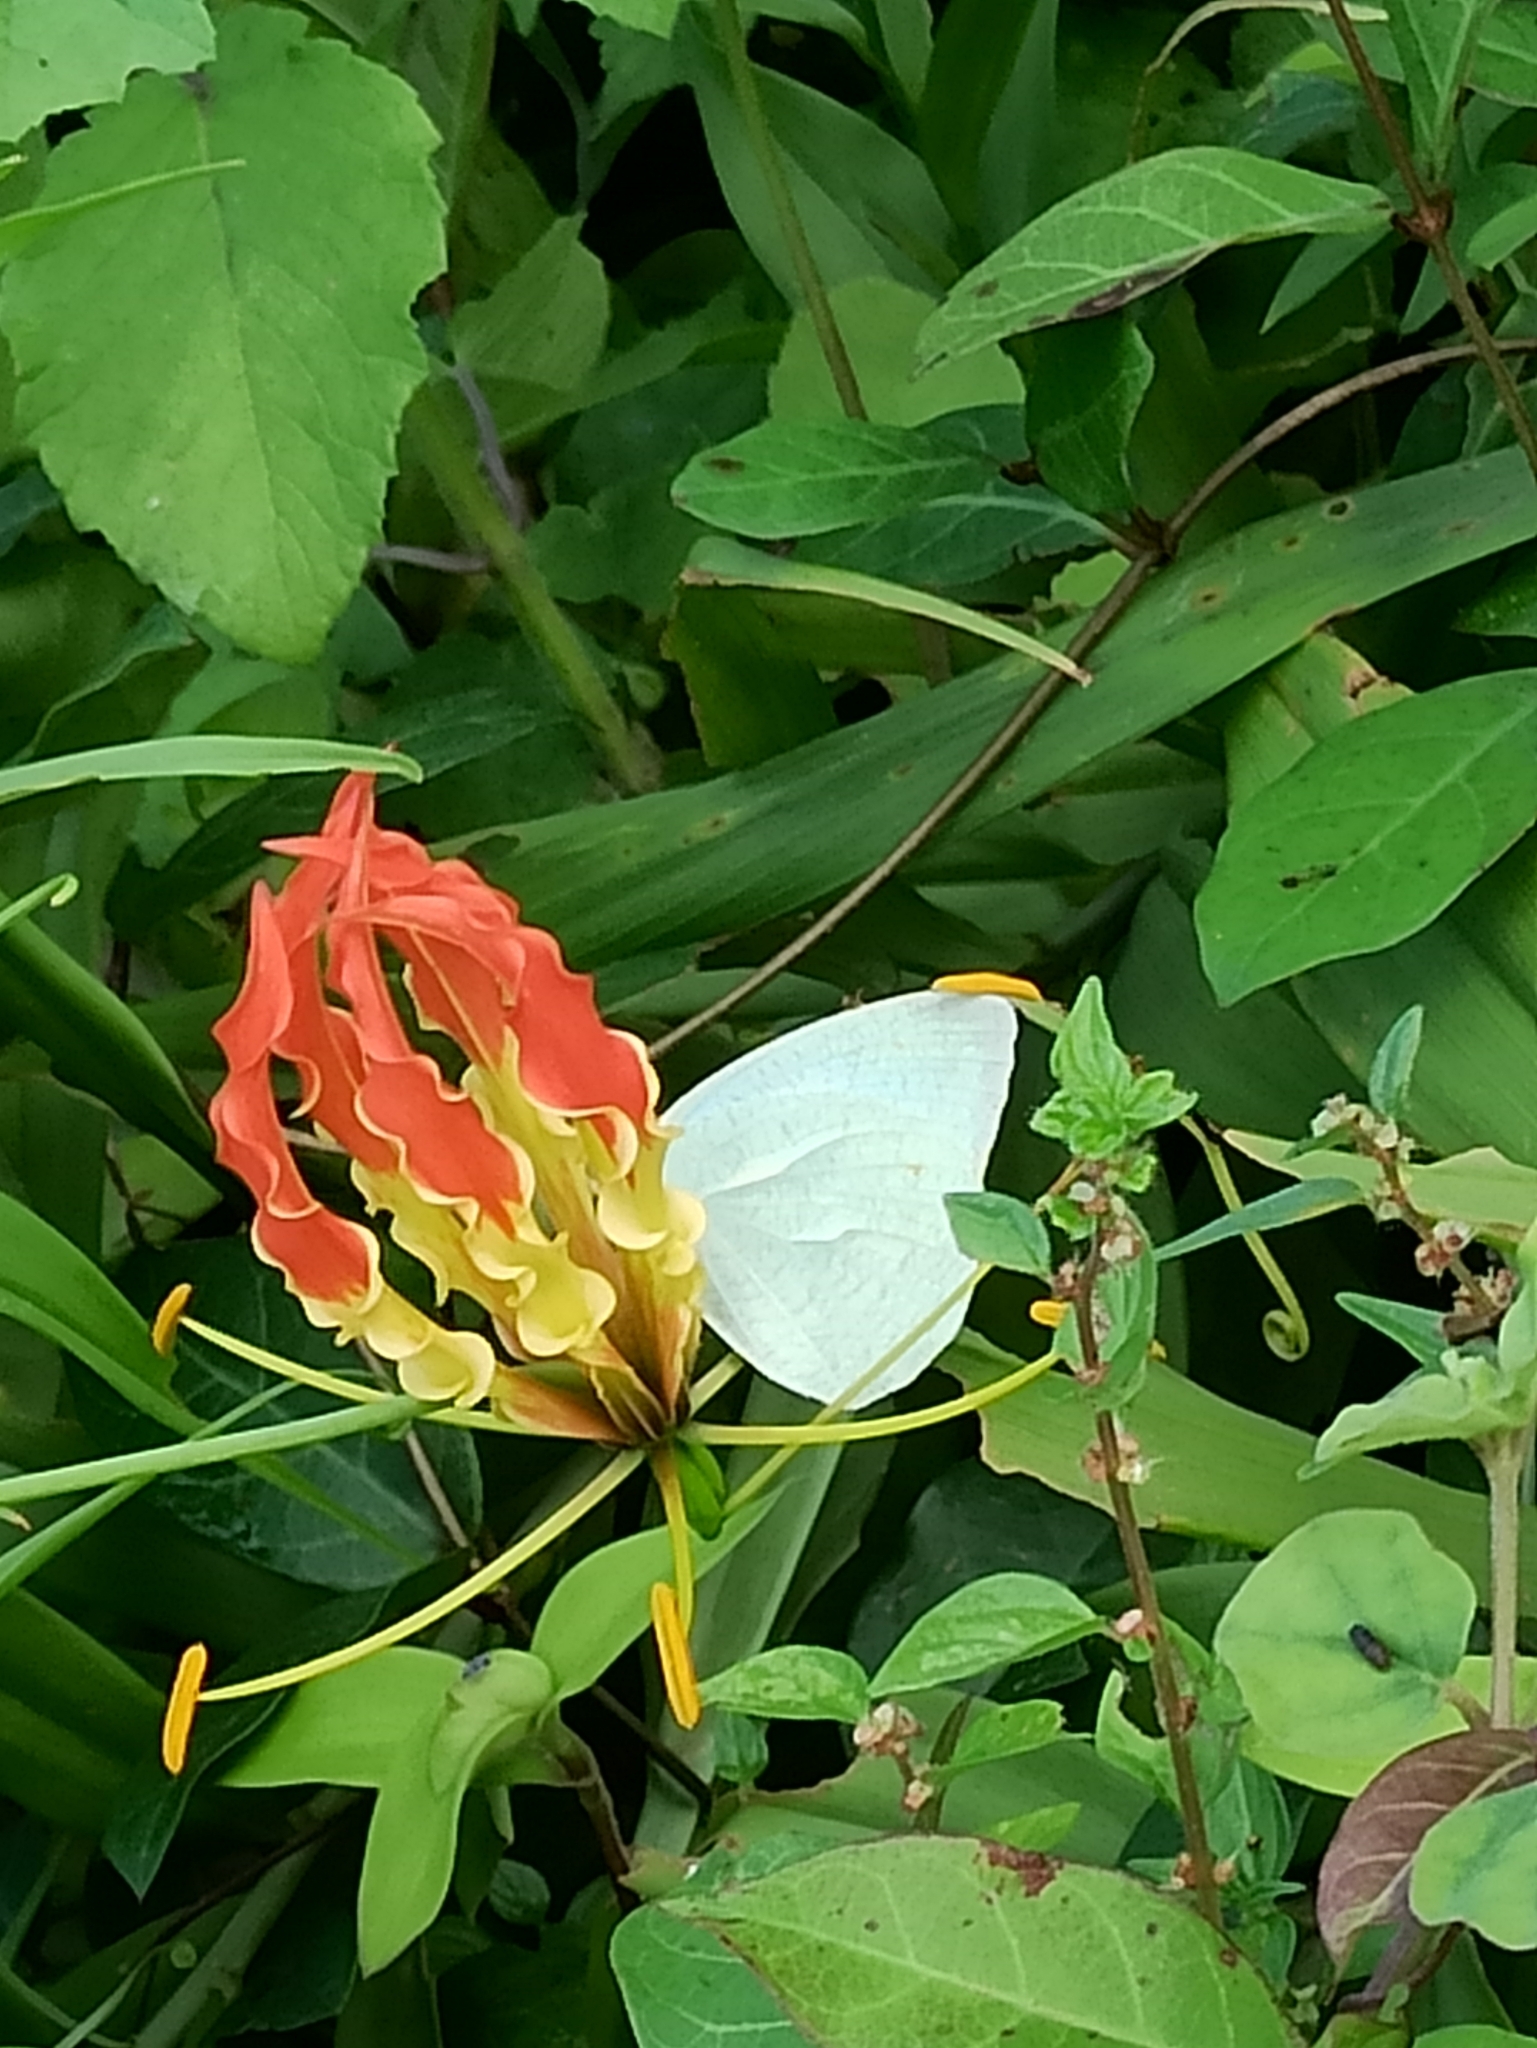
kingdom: Animalia
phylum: Arthropoda
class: Insecta
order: Lepidoptera
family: Pieridae
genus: Catopsilia
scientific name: Catopsilia pyranthe
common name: Mottled emigrant
